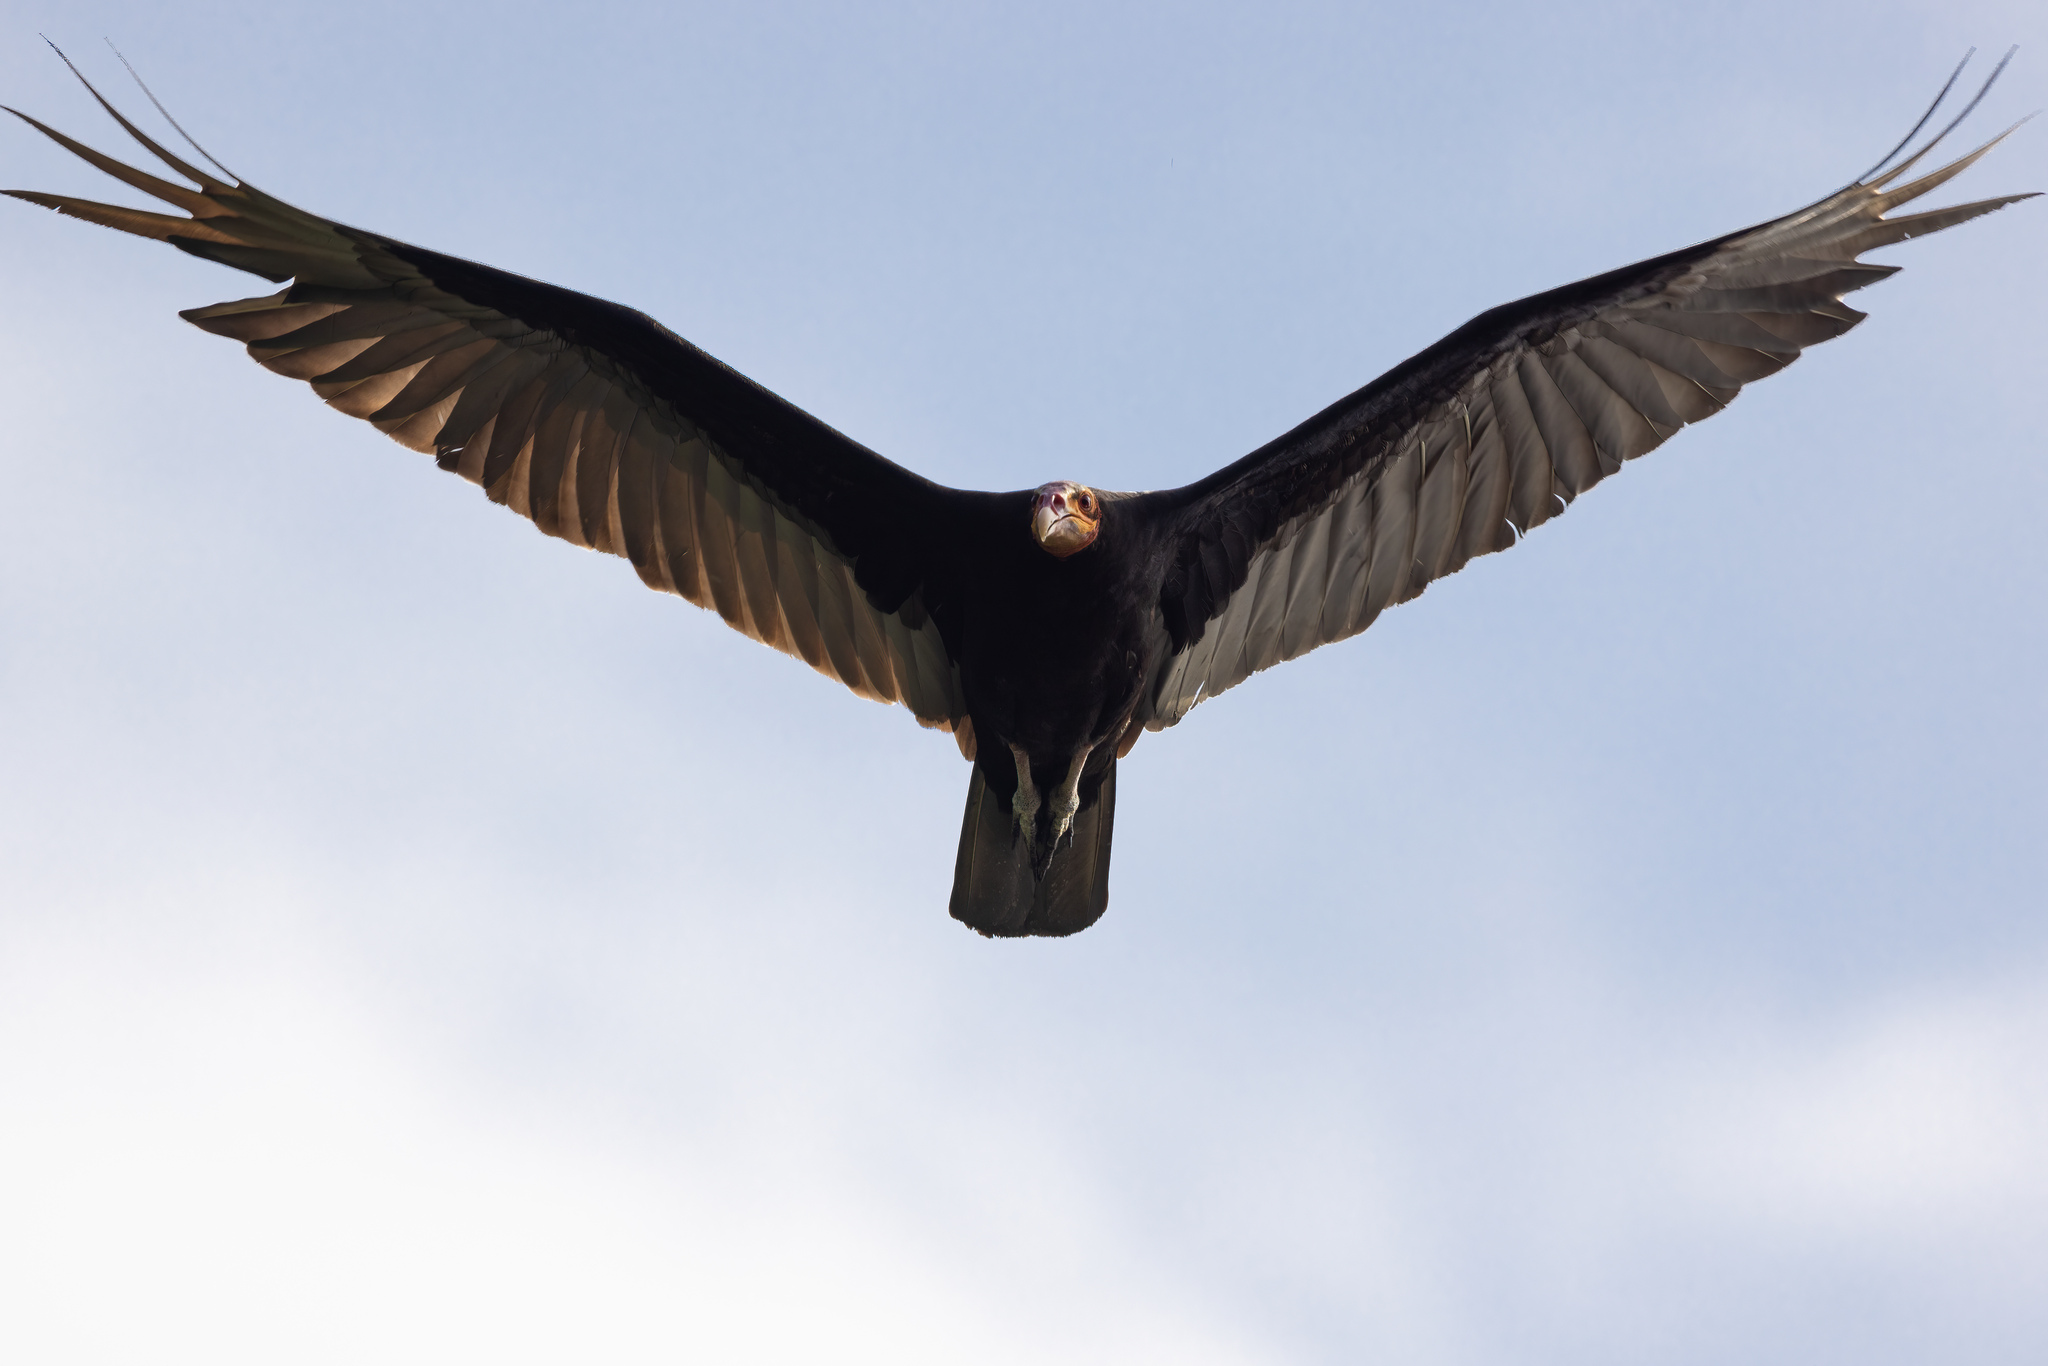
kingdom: Animalia
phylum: Chordata
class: Aves
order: Accipitriformes
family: Cathartidae
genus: Cathartes
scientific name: Cathartes burrovianus
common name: Lesser yellow-headed vulture
